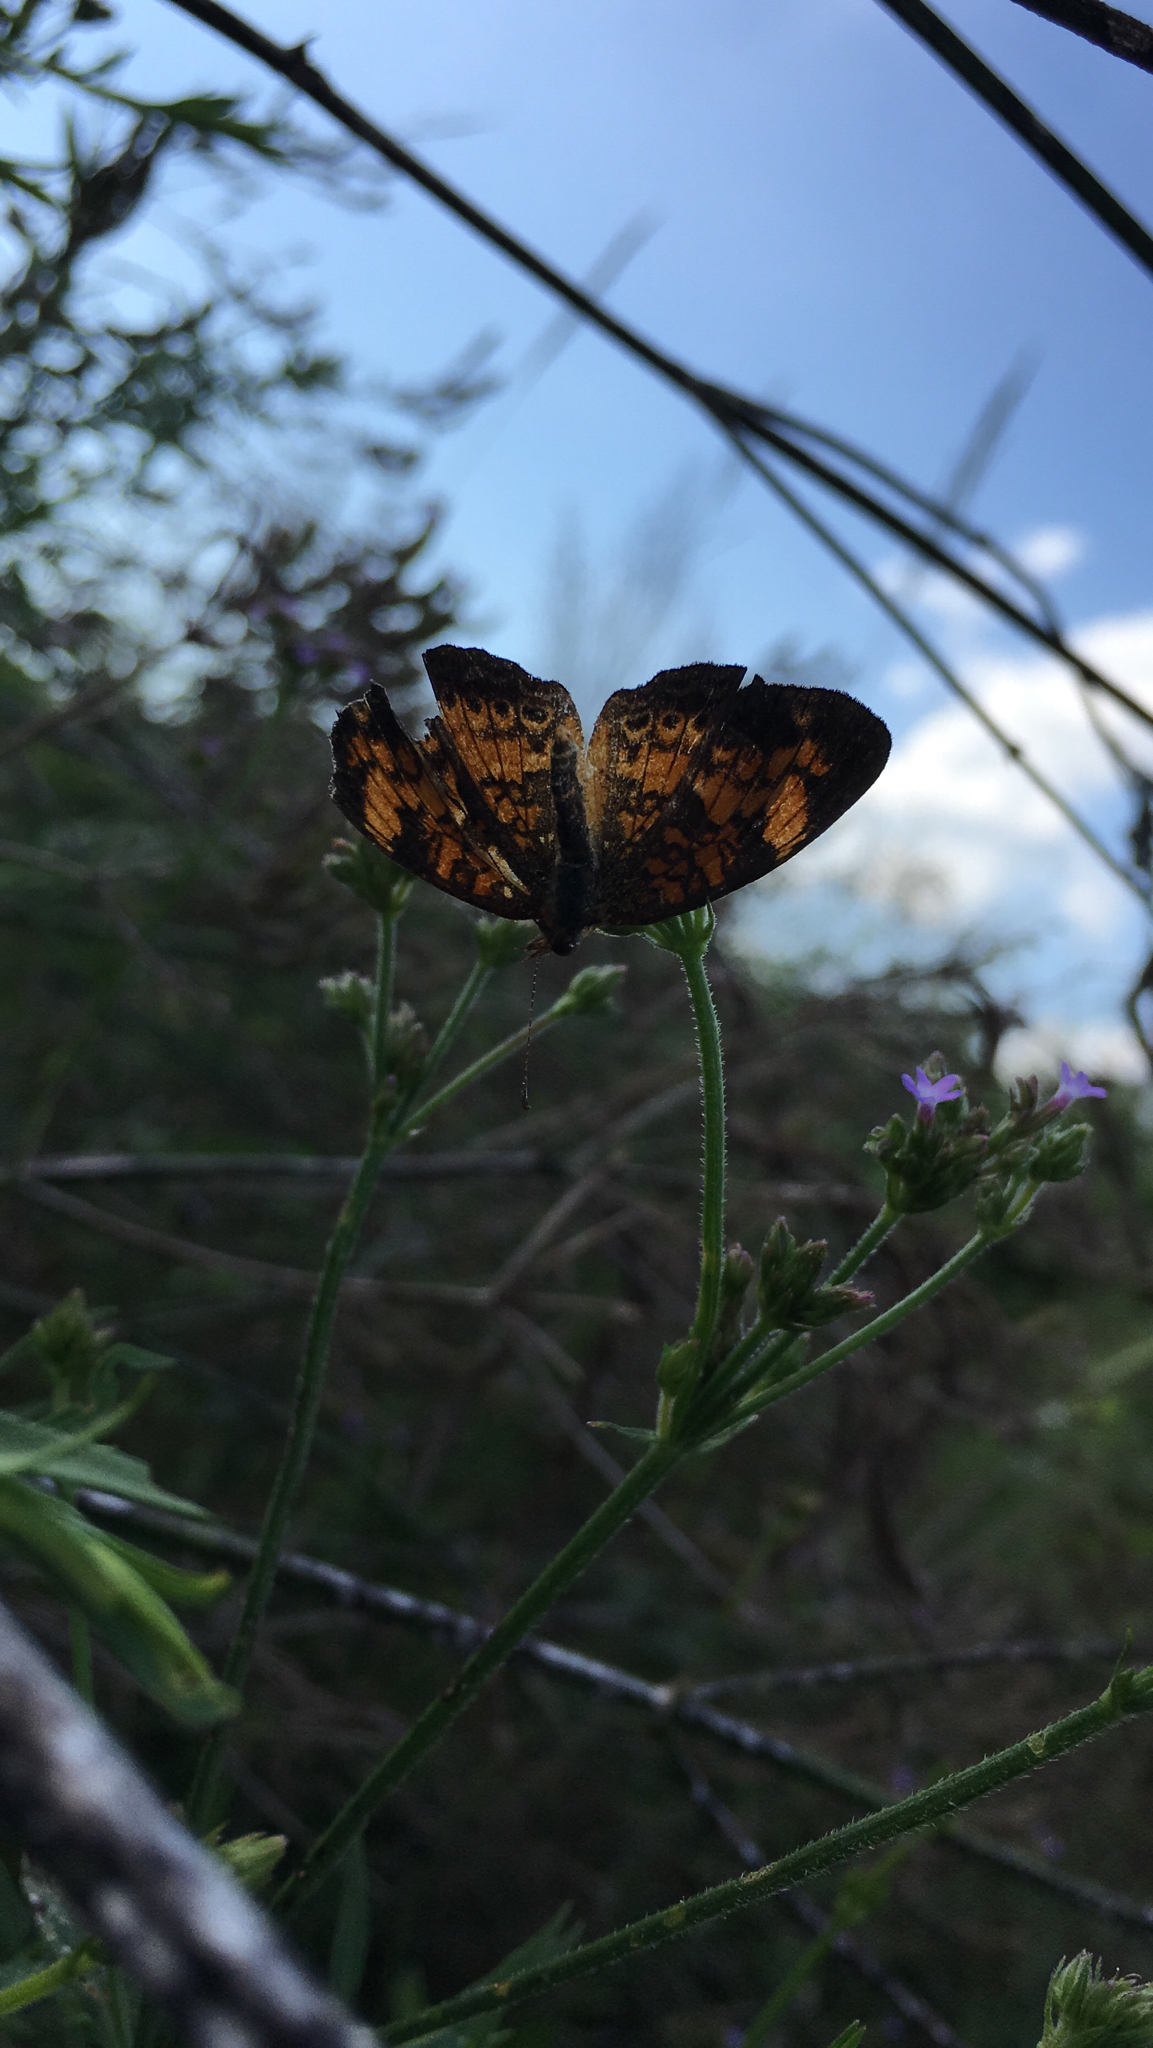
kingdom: Animalia
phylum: Arthropoda
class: Insecta
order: Lepidoptera
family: Nymphalidae
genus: Phyciodes
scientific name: Phyciodes tharos
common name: Pearl crescent
